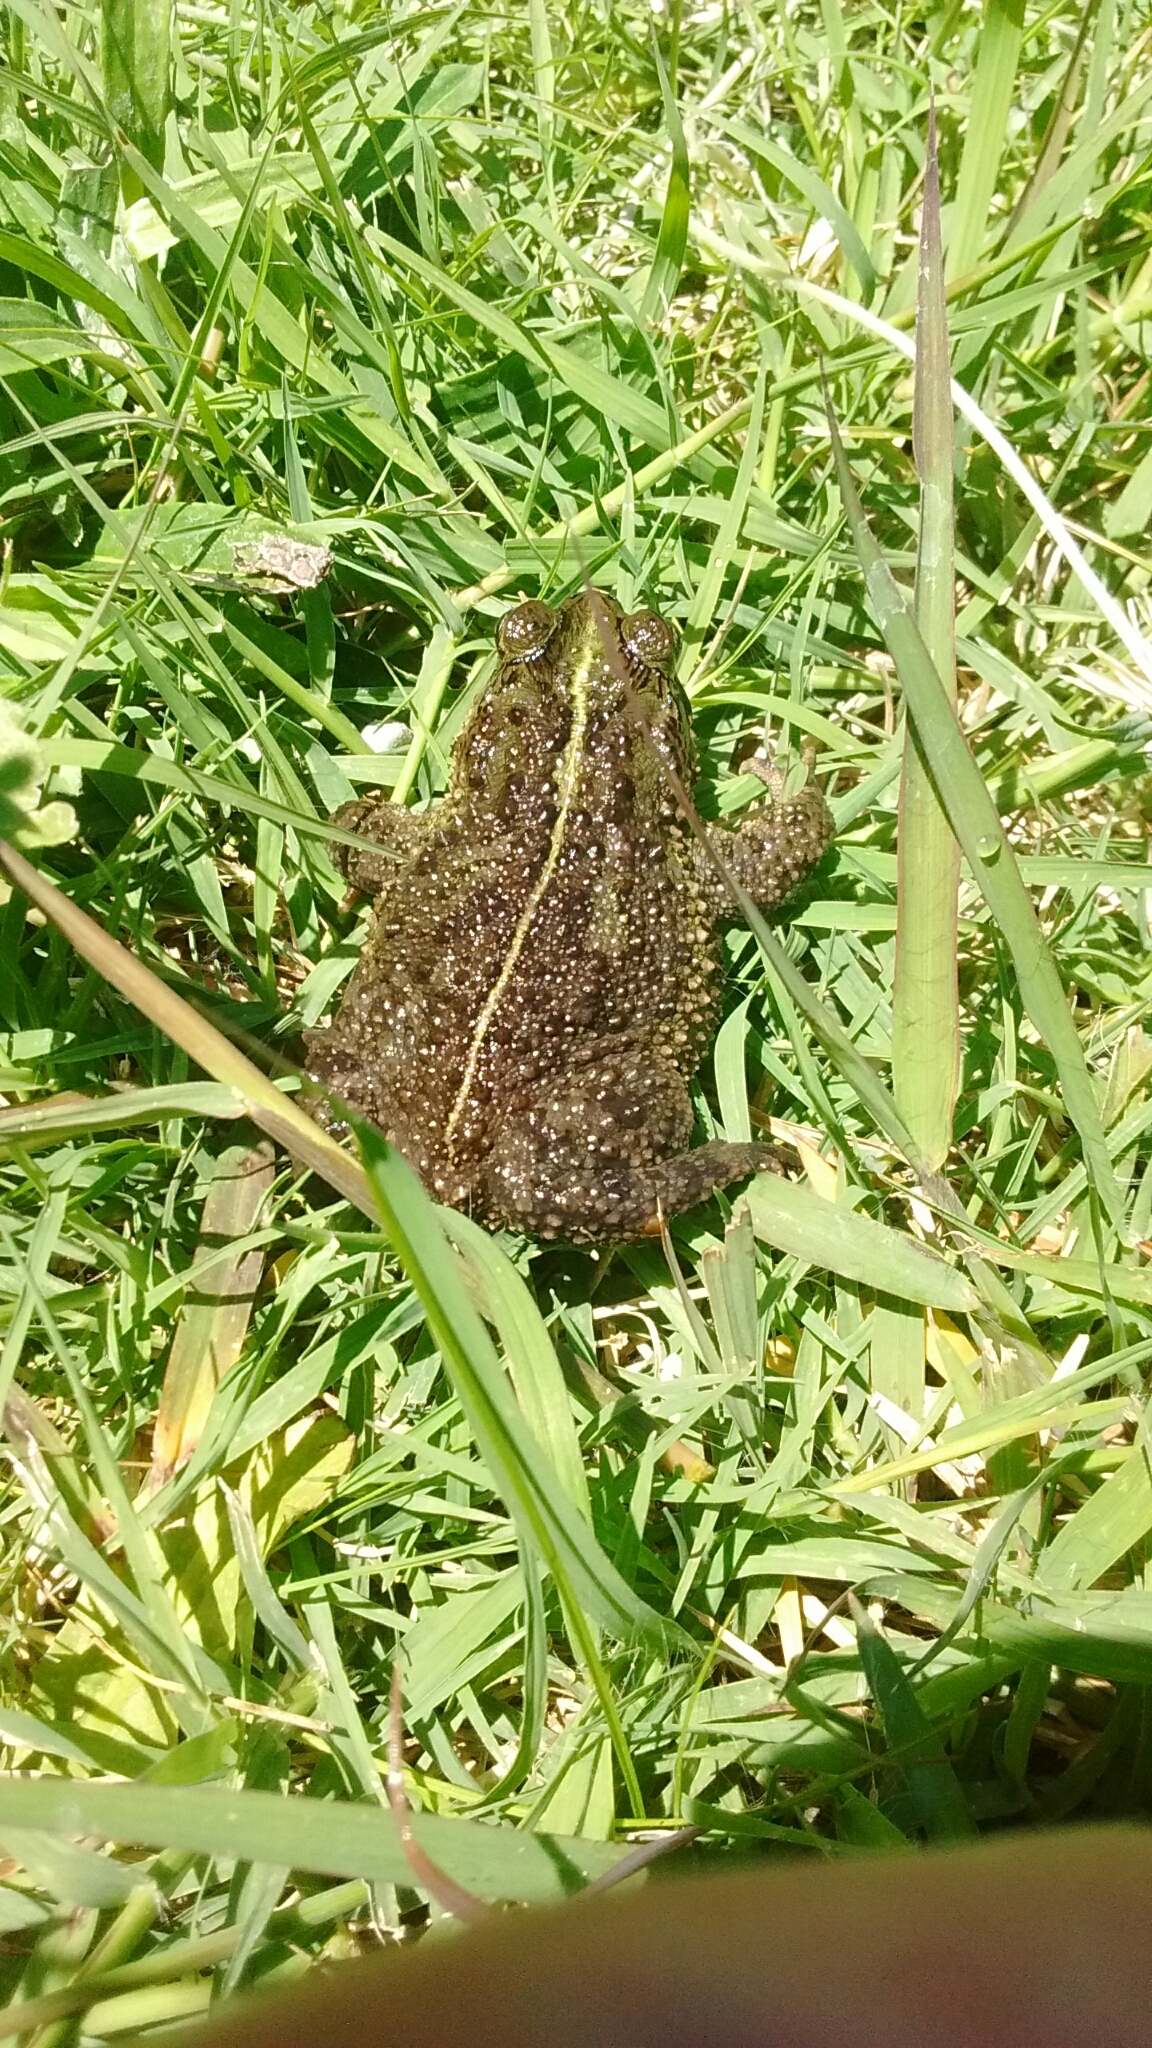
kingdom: Animalia
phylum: Chordata
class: Amphibia
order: Anura
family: Bufonidae
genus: Rhinella
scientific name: Rhinella dorbignyi
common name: D´orbigny’s toad
